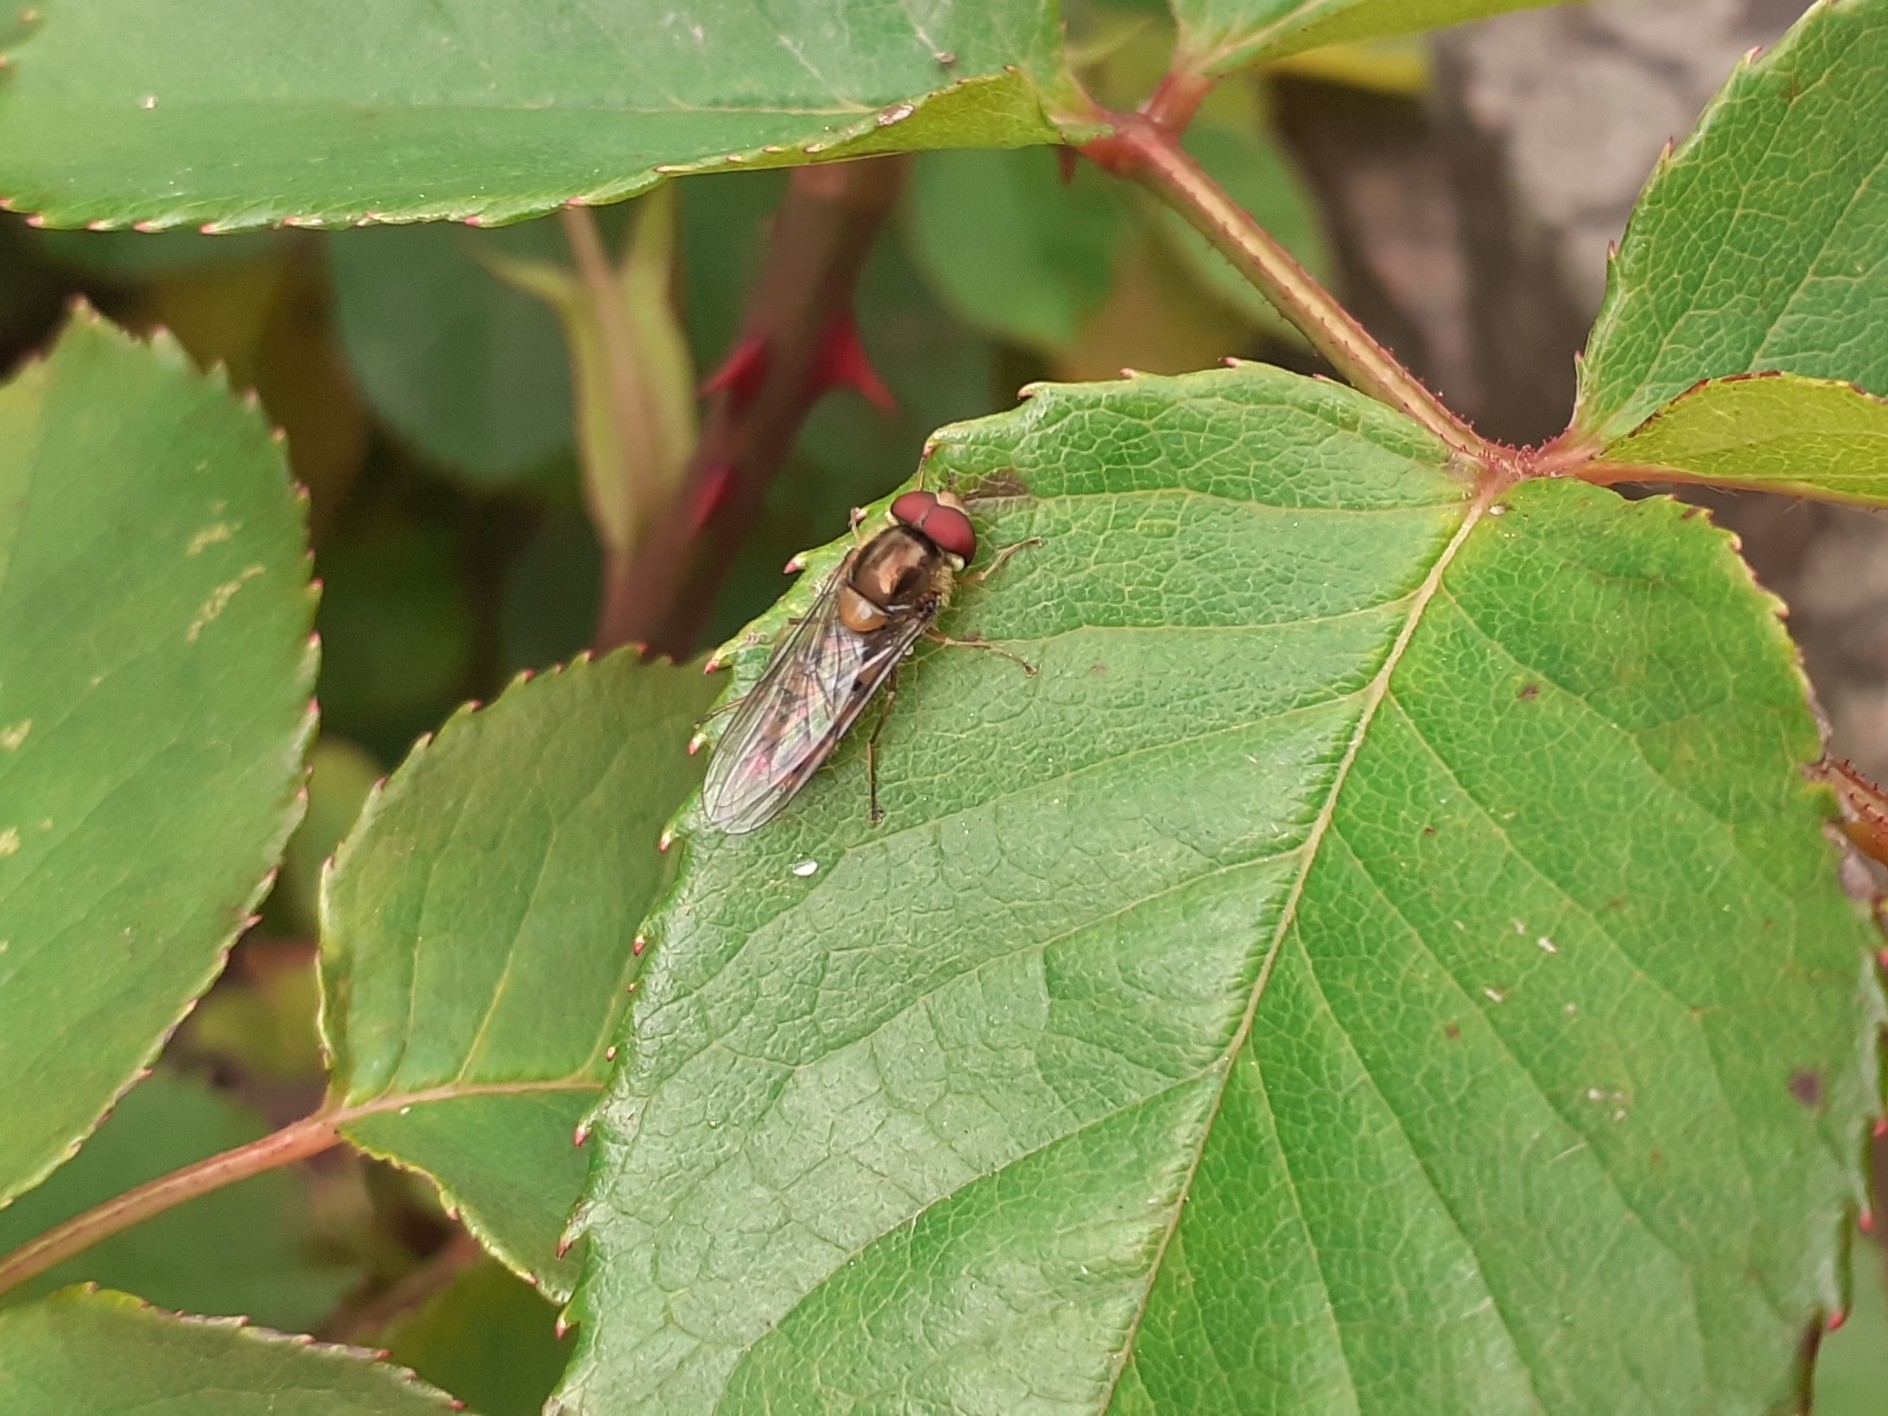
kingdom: Animalia
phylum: Arthropoda
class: Insecta
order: Diptera
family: Syrphidae
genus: Episyrphus
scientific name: Episyrphus balteatus
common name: Marmalade hoverfly
